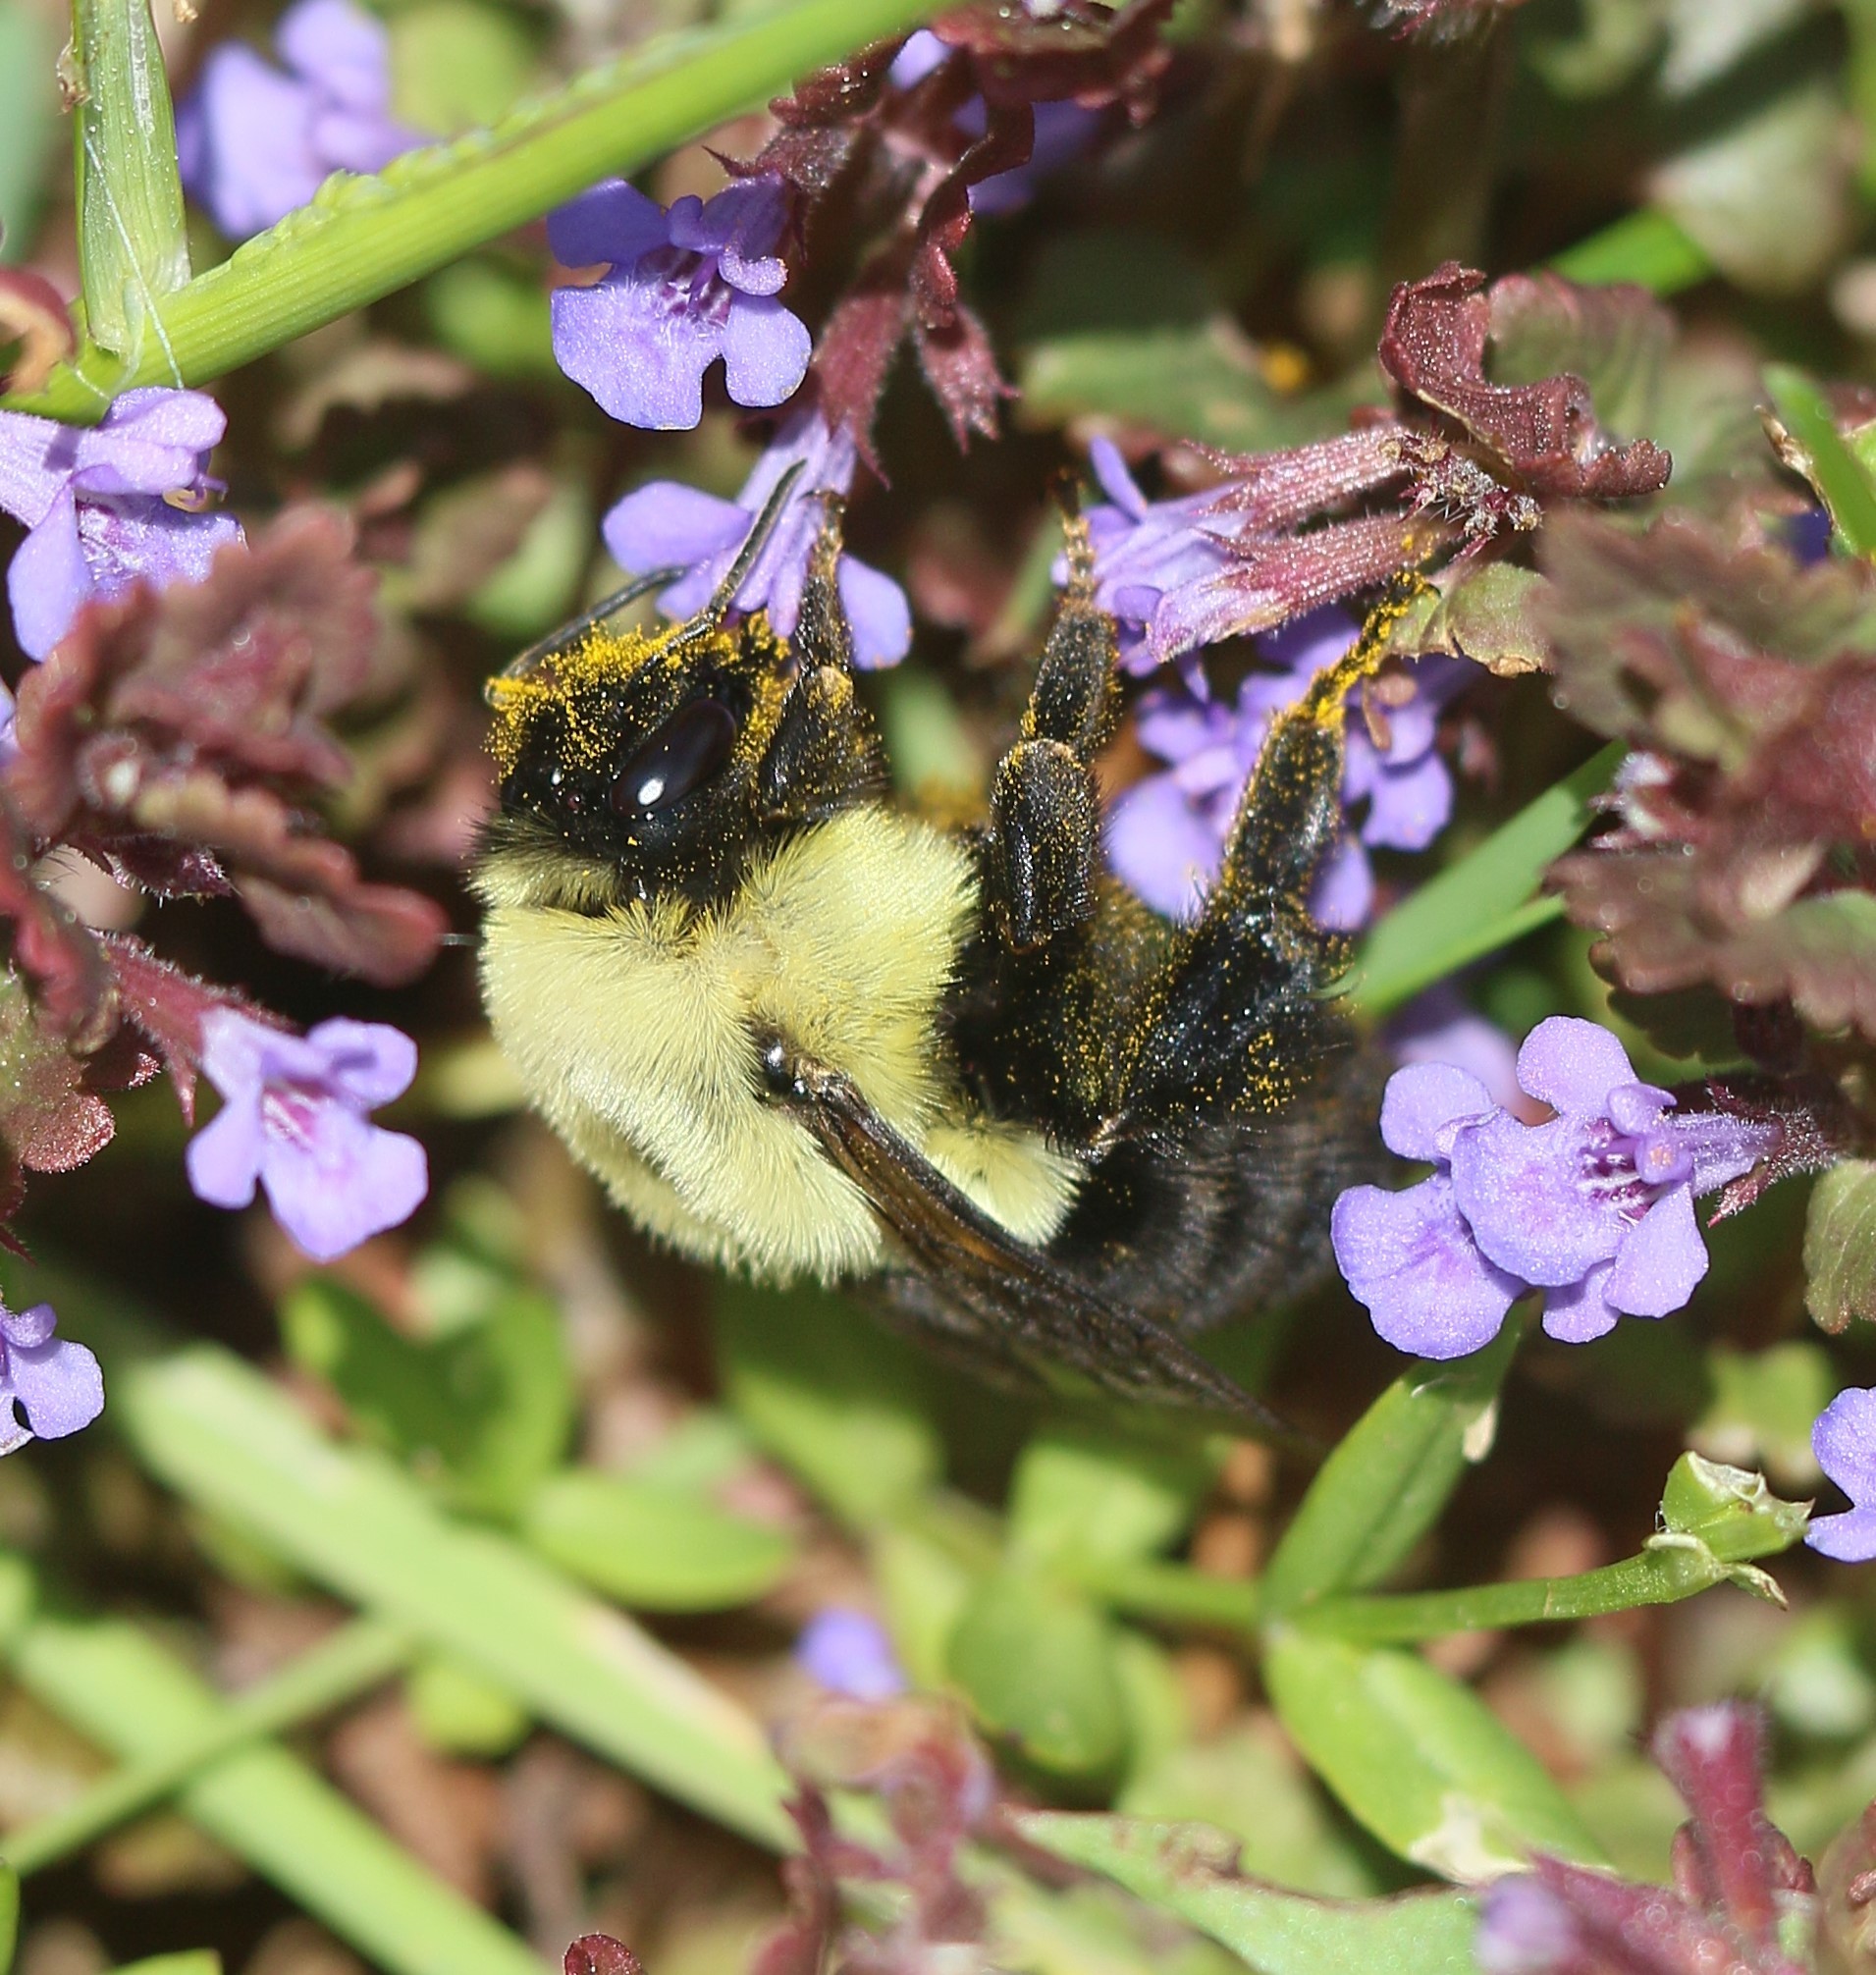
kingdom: Animalia
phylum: Arthropoda
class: Insecta
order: Hymenoptera
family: Apidae
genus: Bombus
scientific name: Bombus impatiens
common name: Common eastern bumble bee
